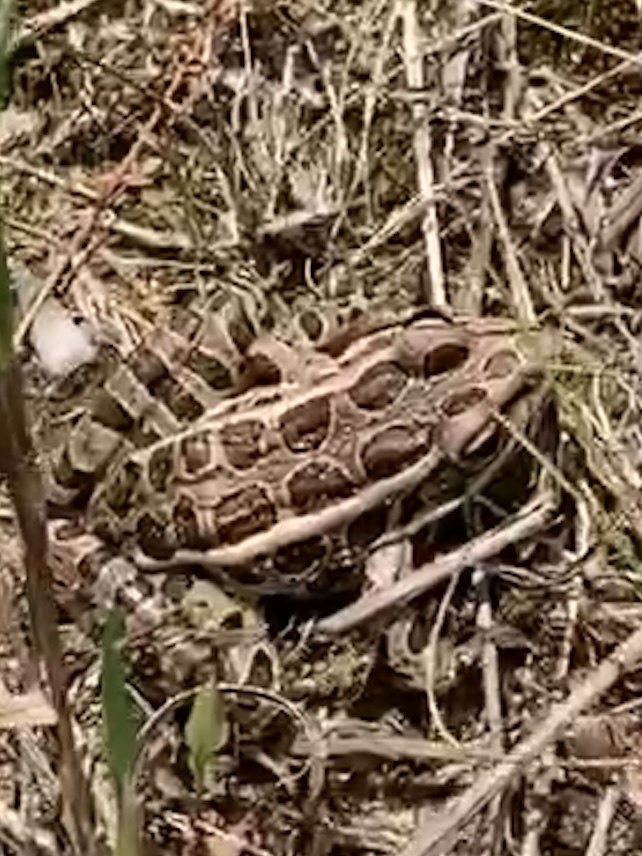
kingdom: Animalia
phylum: Chordata
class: Amphibia
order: Anura
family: Ranidae
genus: Lithobates
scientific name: Lithobates palustris
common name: Pickerel frog
